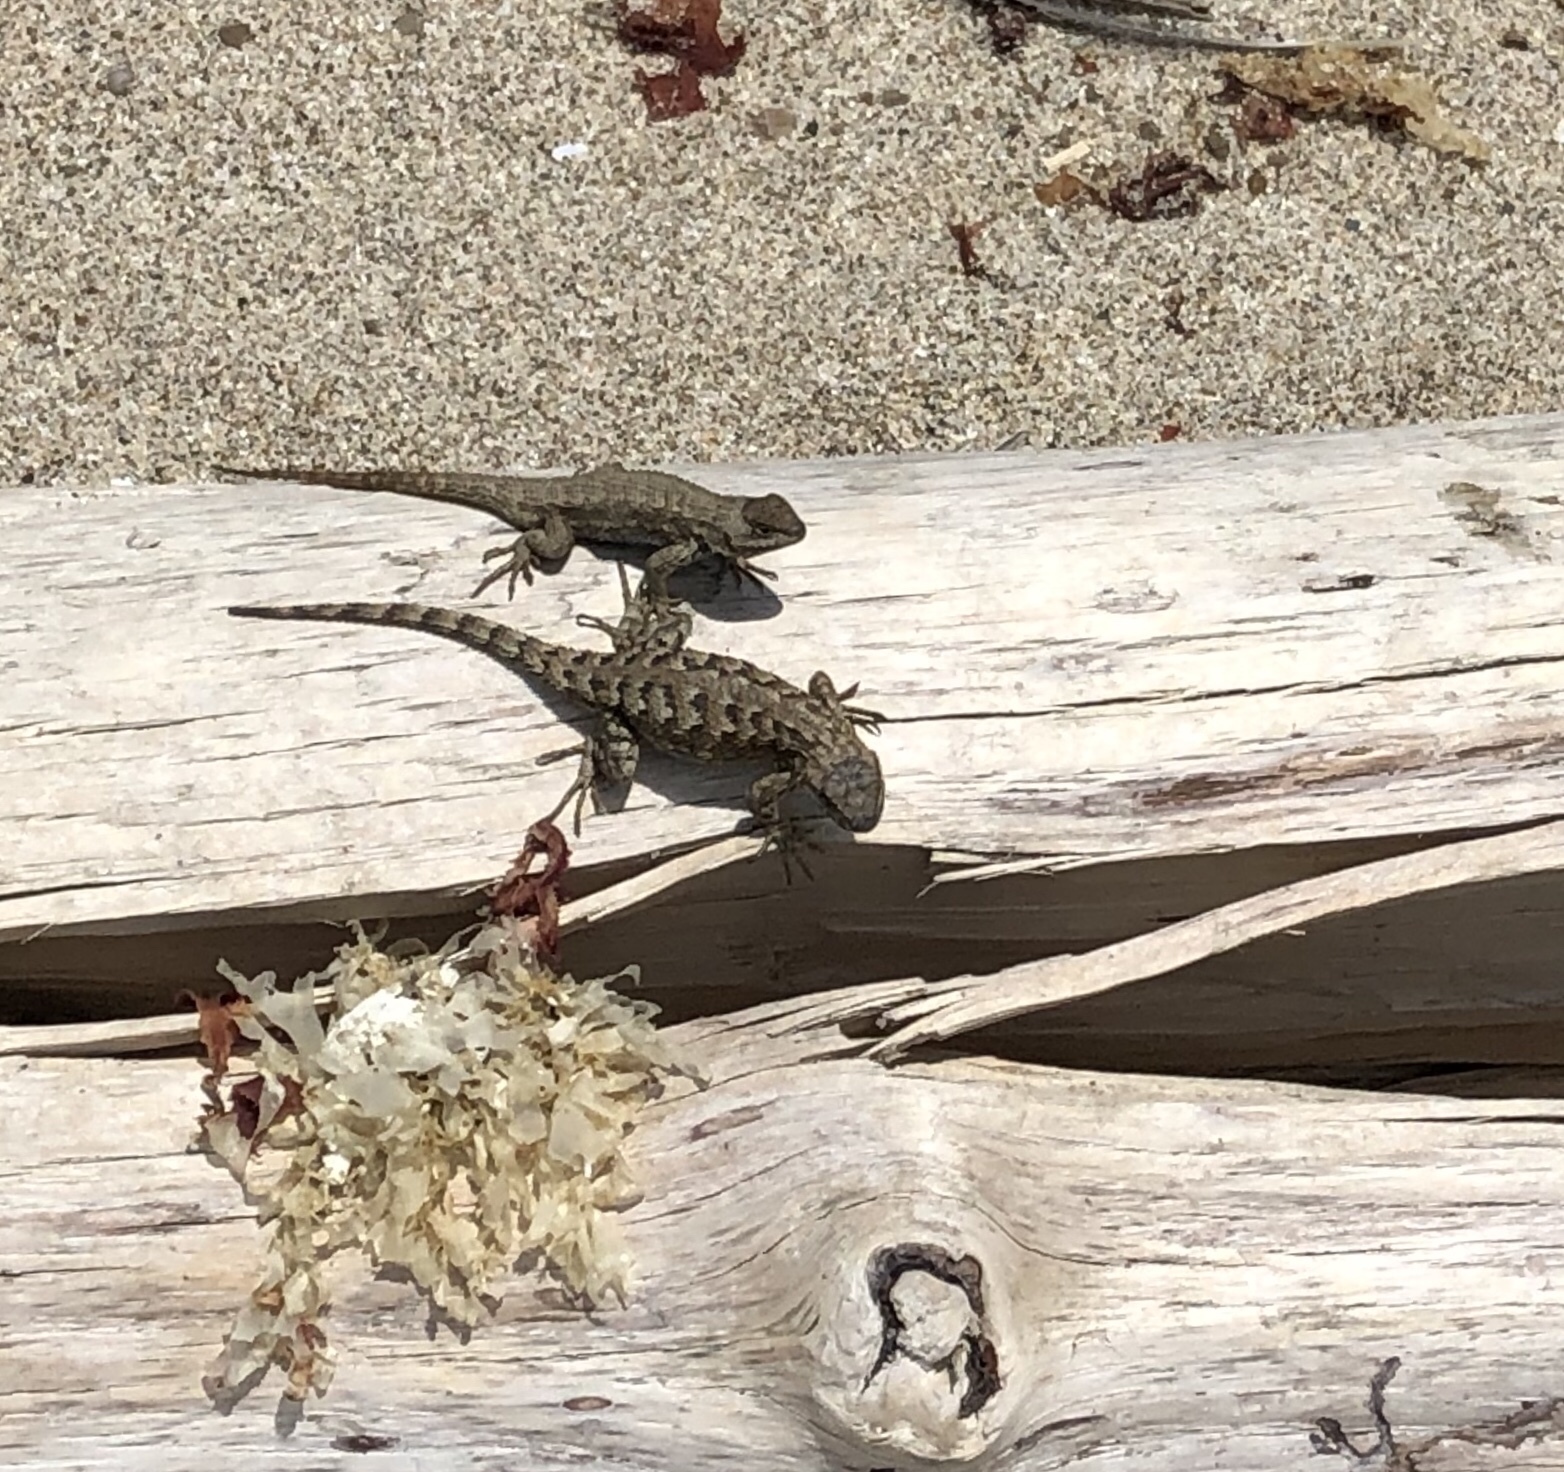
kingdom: Animalia
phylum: Chordata
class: Squamata
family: Phrynosomatidae
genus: Sceloporus
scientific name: Sceloporus occidentalis
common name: Western fence lizard
